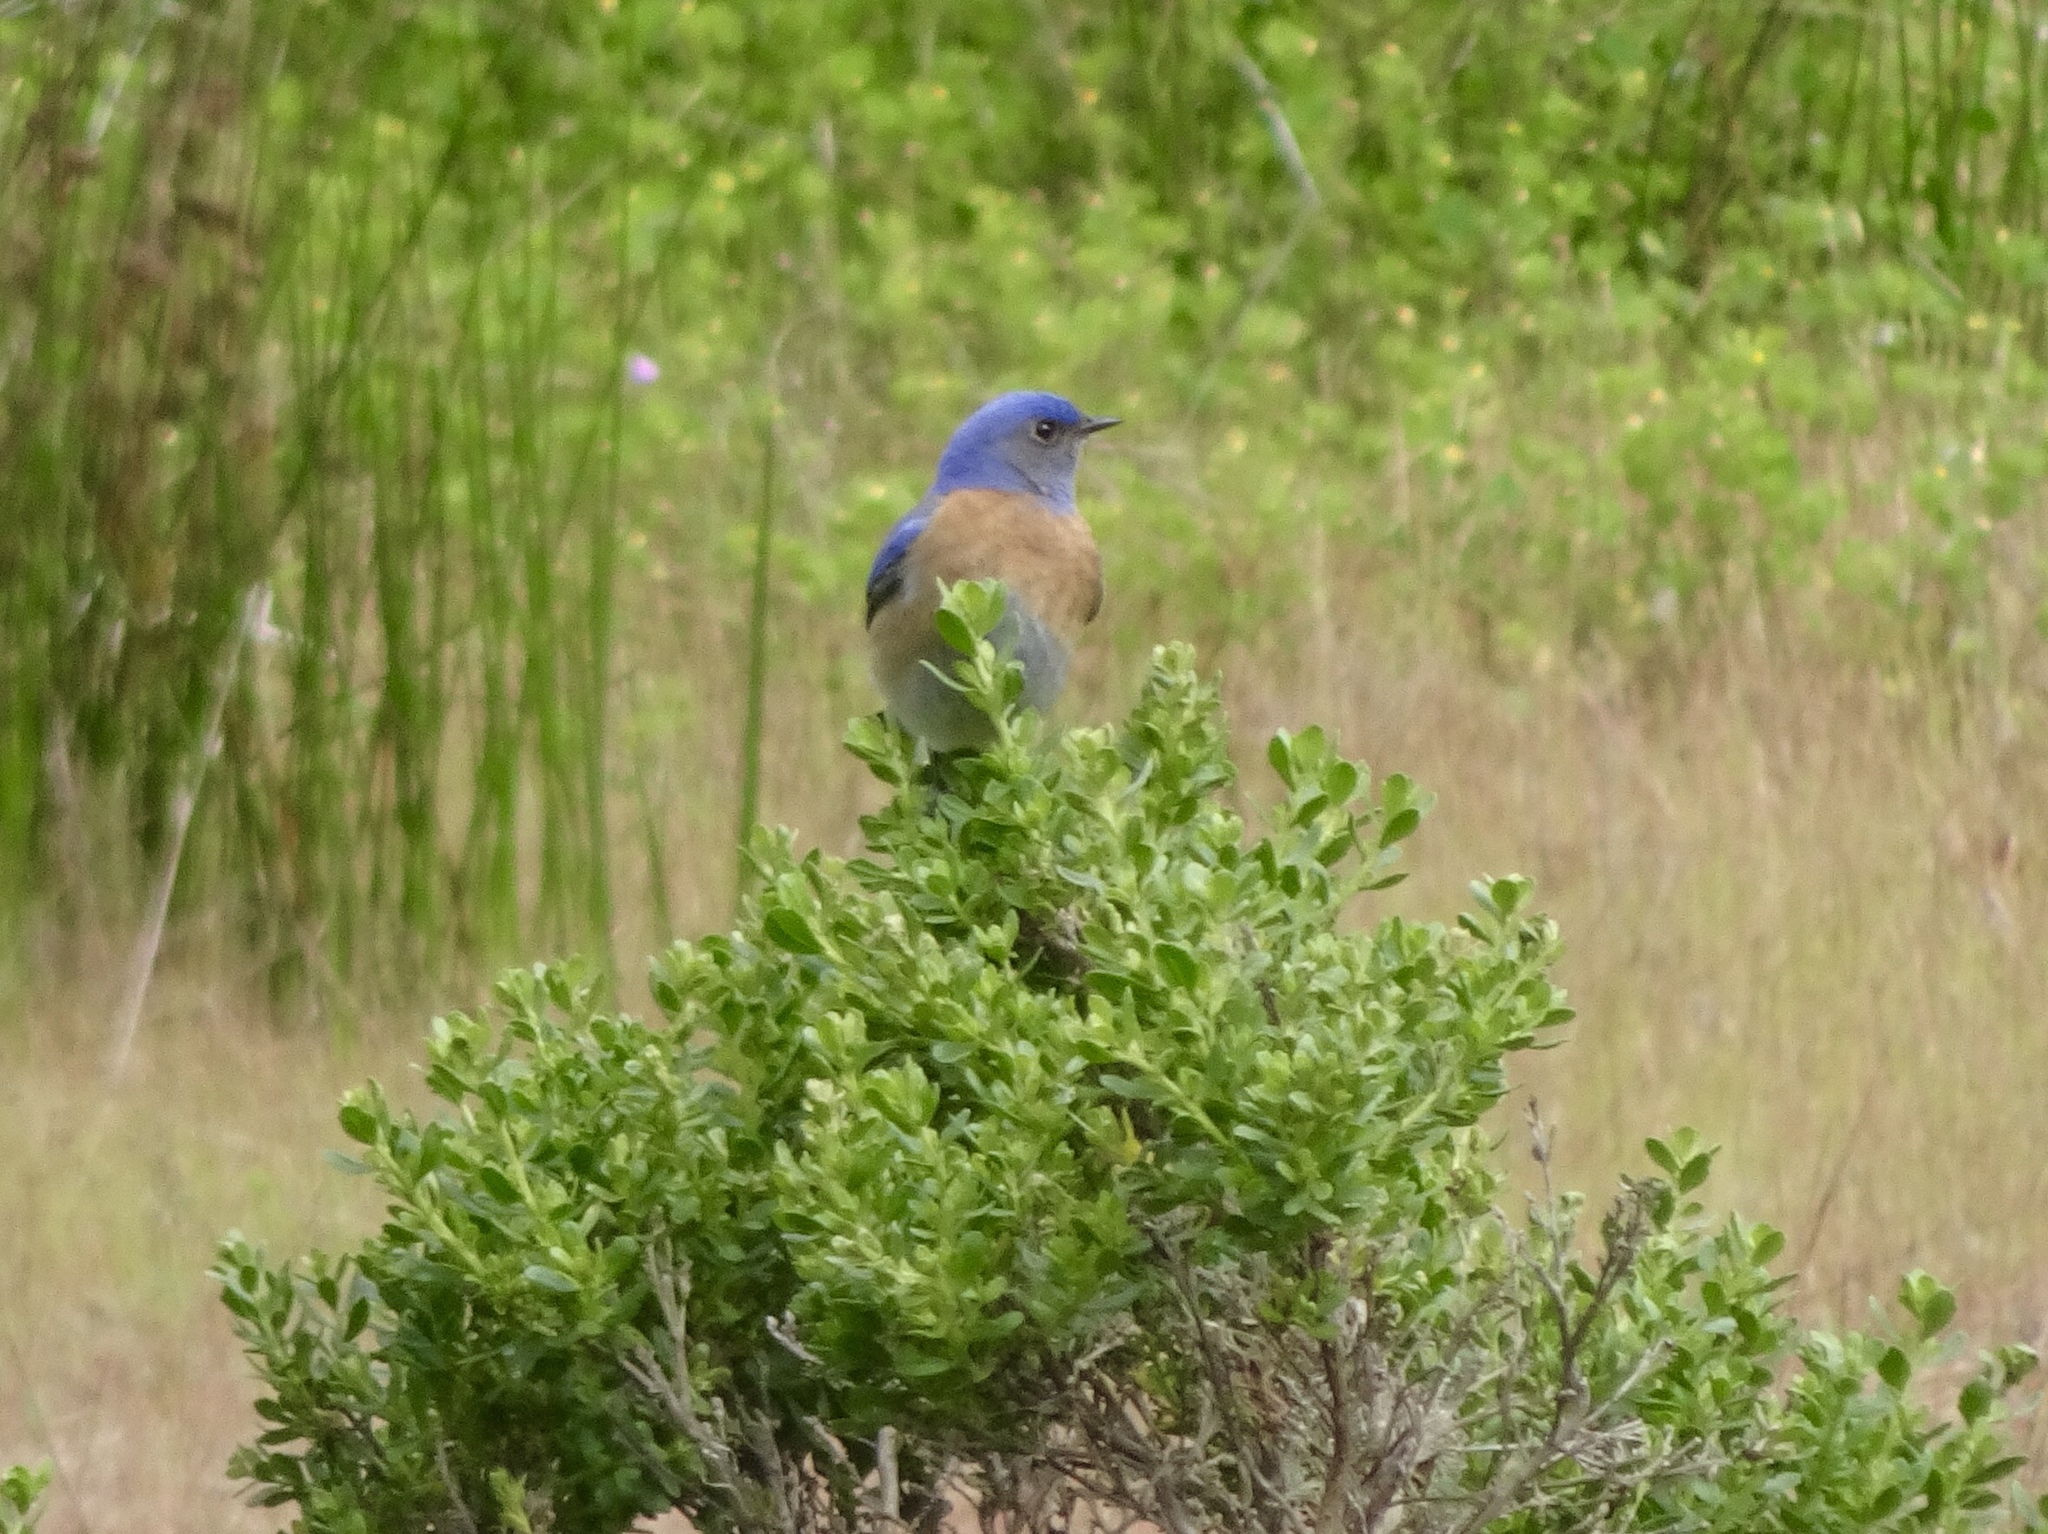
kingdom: Animalia
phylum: Chordata
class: Aves
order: Passeriformes
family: Turdidae
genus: Sialia
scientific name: Sialia mexicana
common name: Western bluebird
